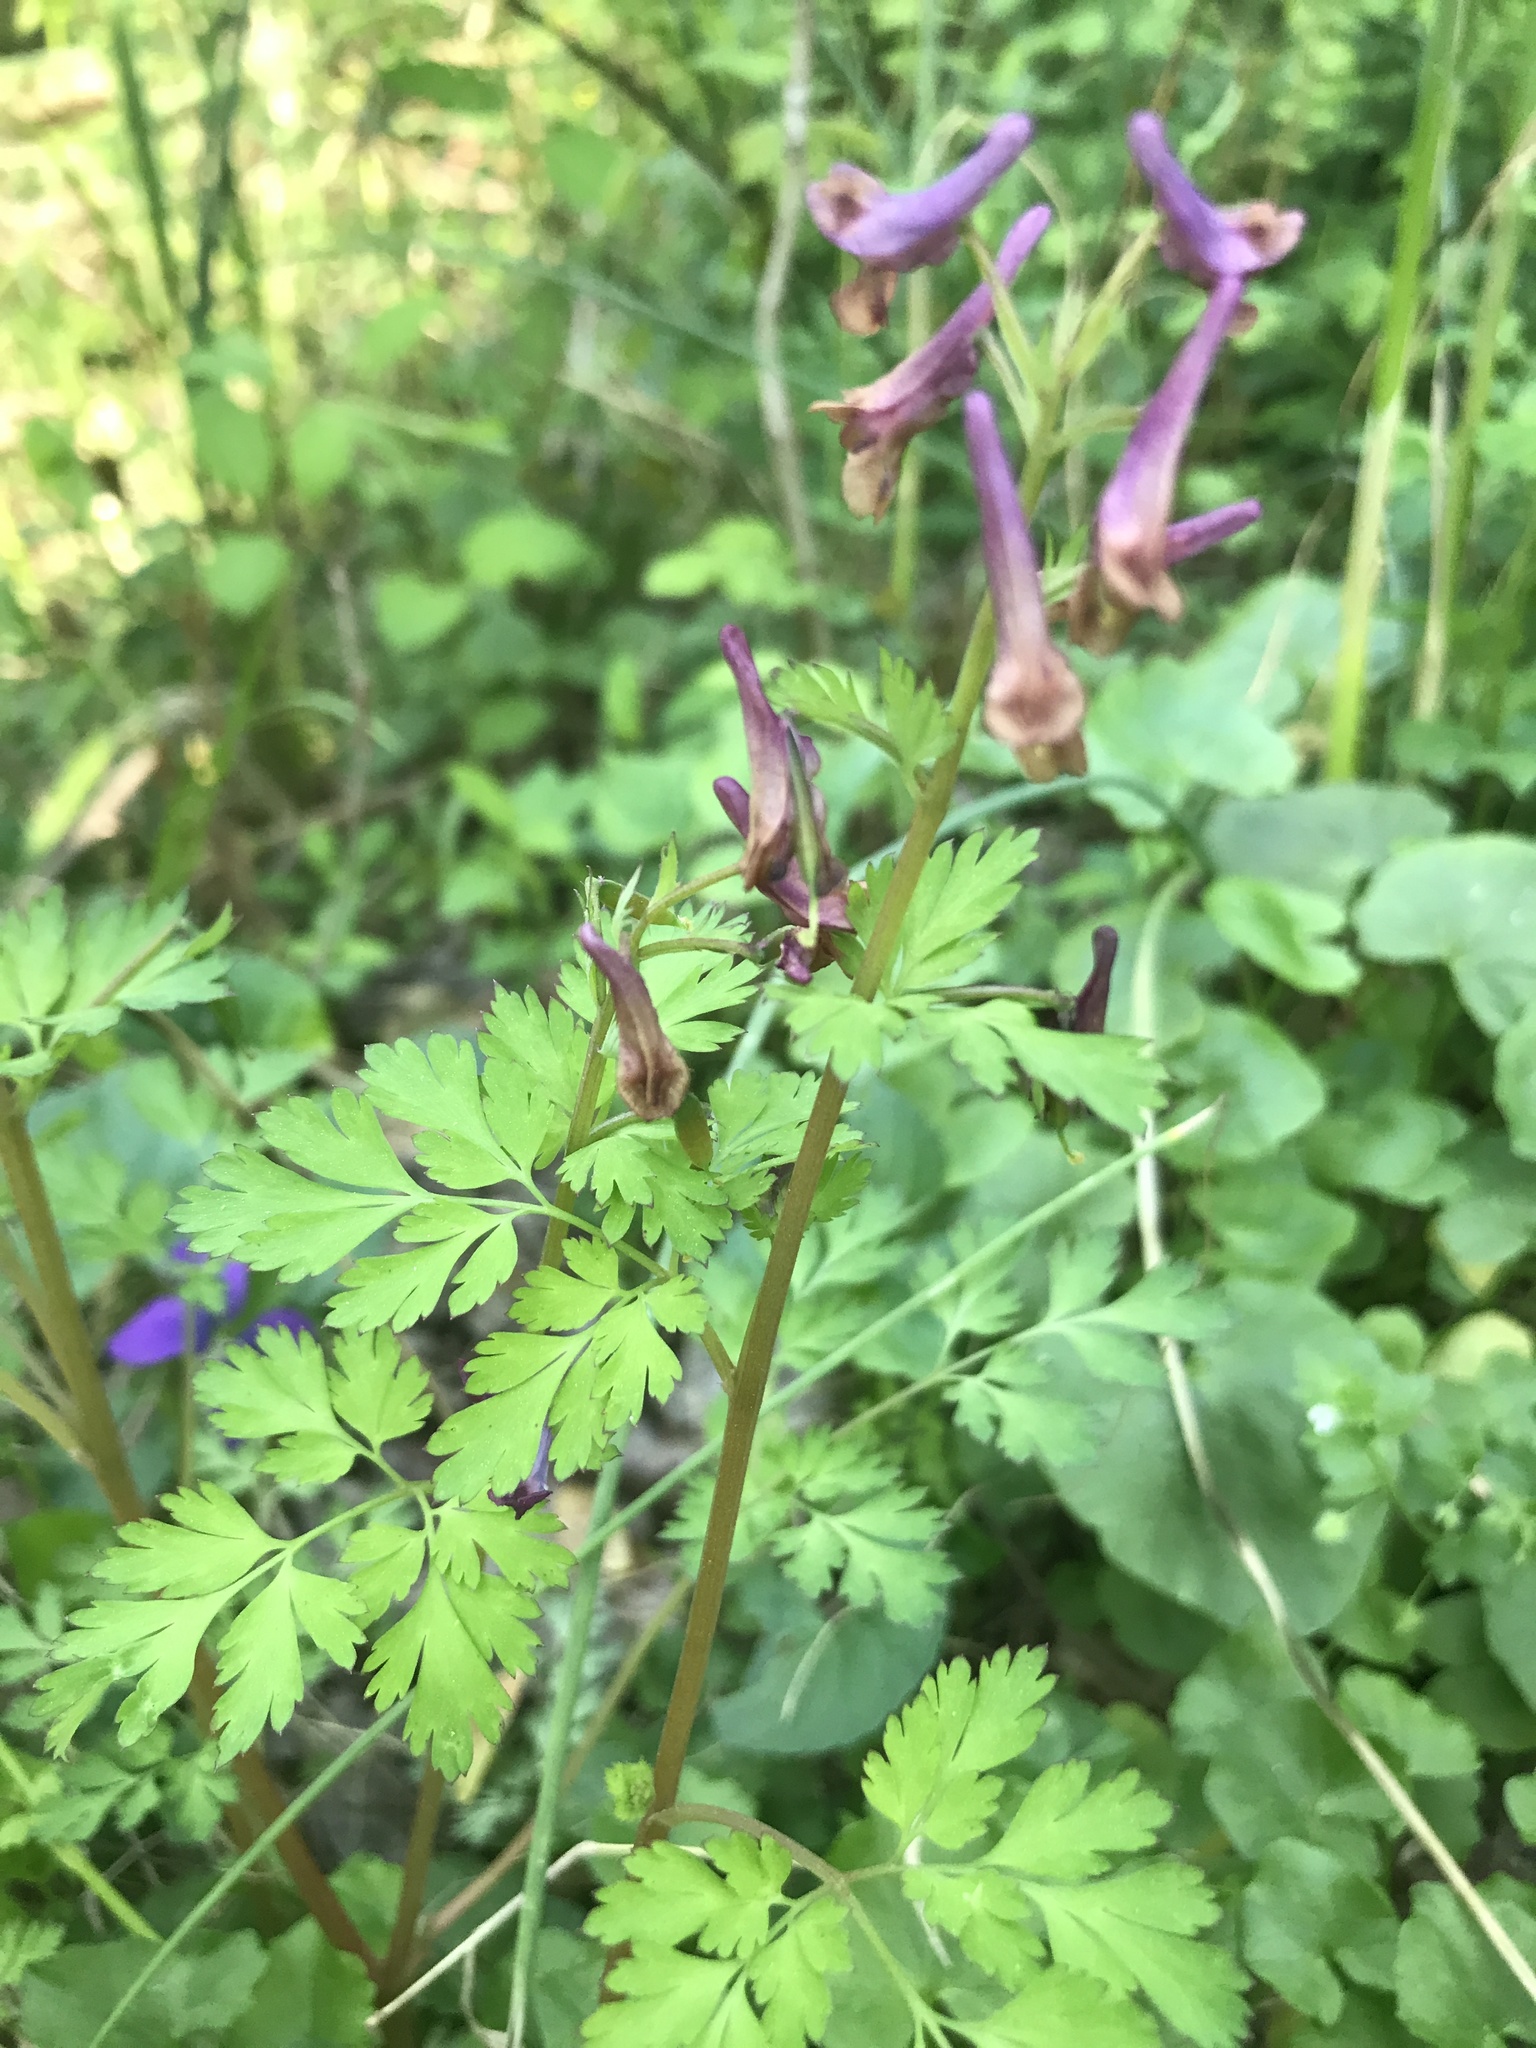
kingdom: Plantae
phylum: Tracheophyta
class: Magnoliopsida
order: Ranunculales
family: Papaveraceae
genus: Corydalis
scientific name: Corydalis incisa
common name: Incised fumewort
